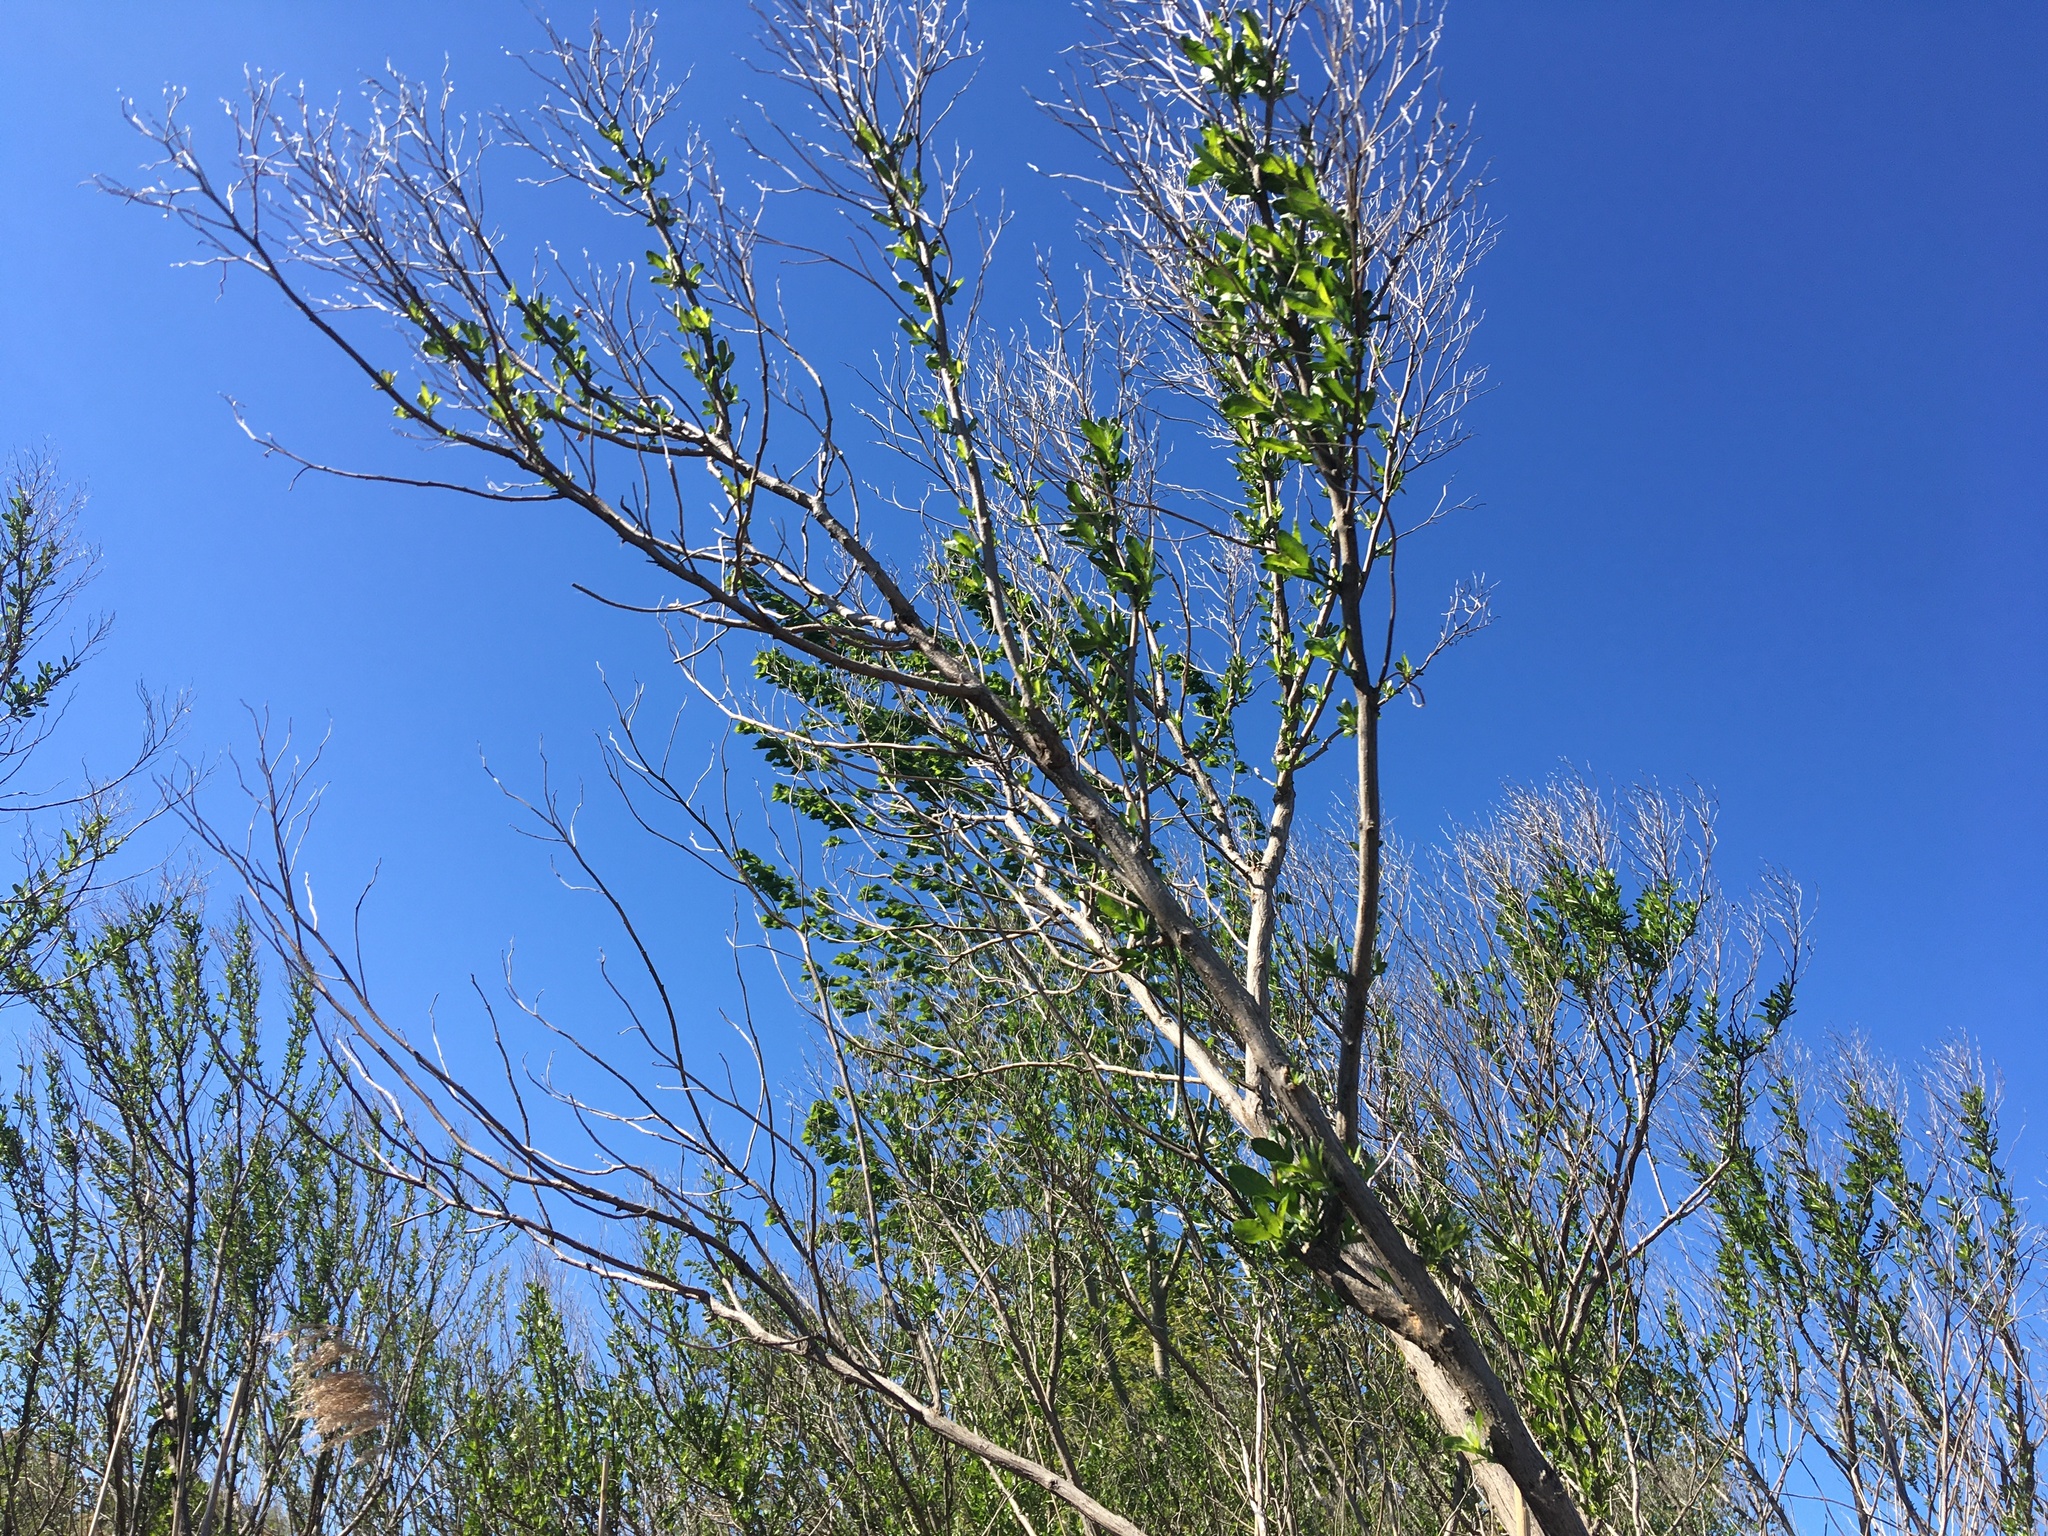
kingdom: Plantae
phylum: Tracheophyta
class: Magnoliopsida
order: Asterales
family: Asteraceae
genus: Baccharis
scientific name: Baccharis halimifolia
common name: Eastern baccharis
